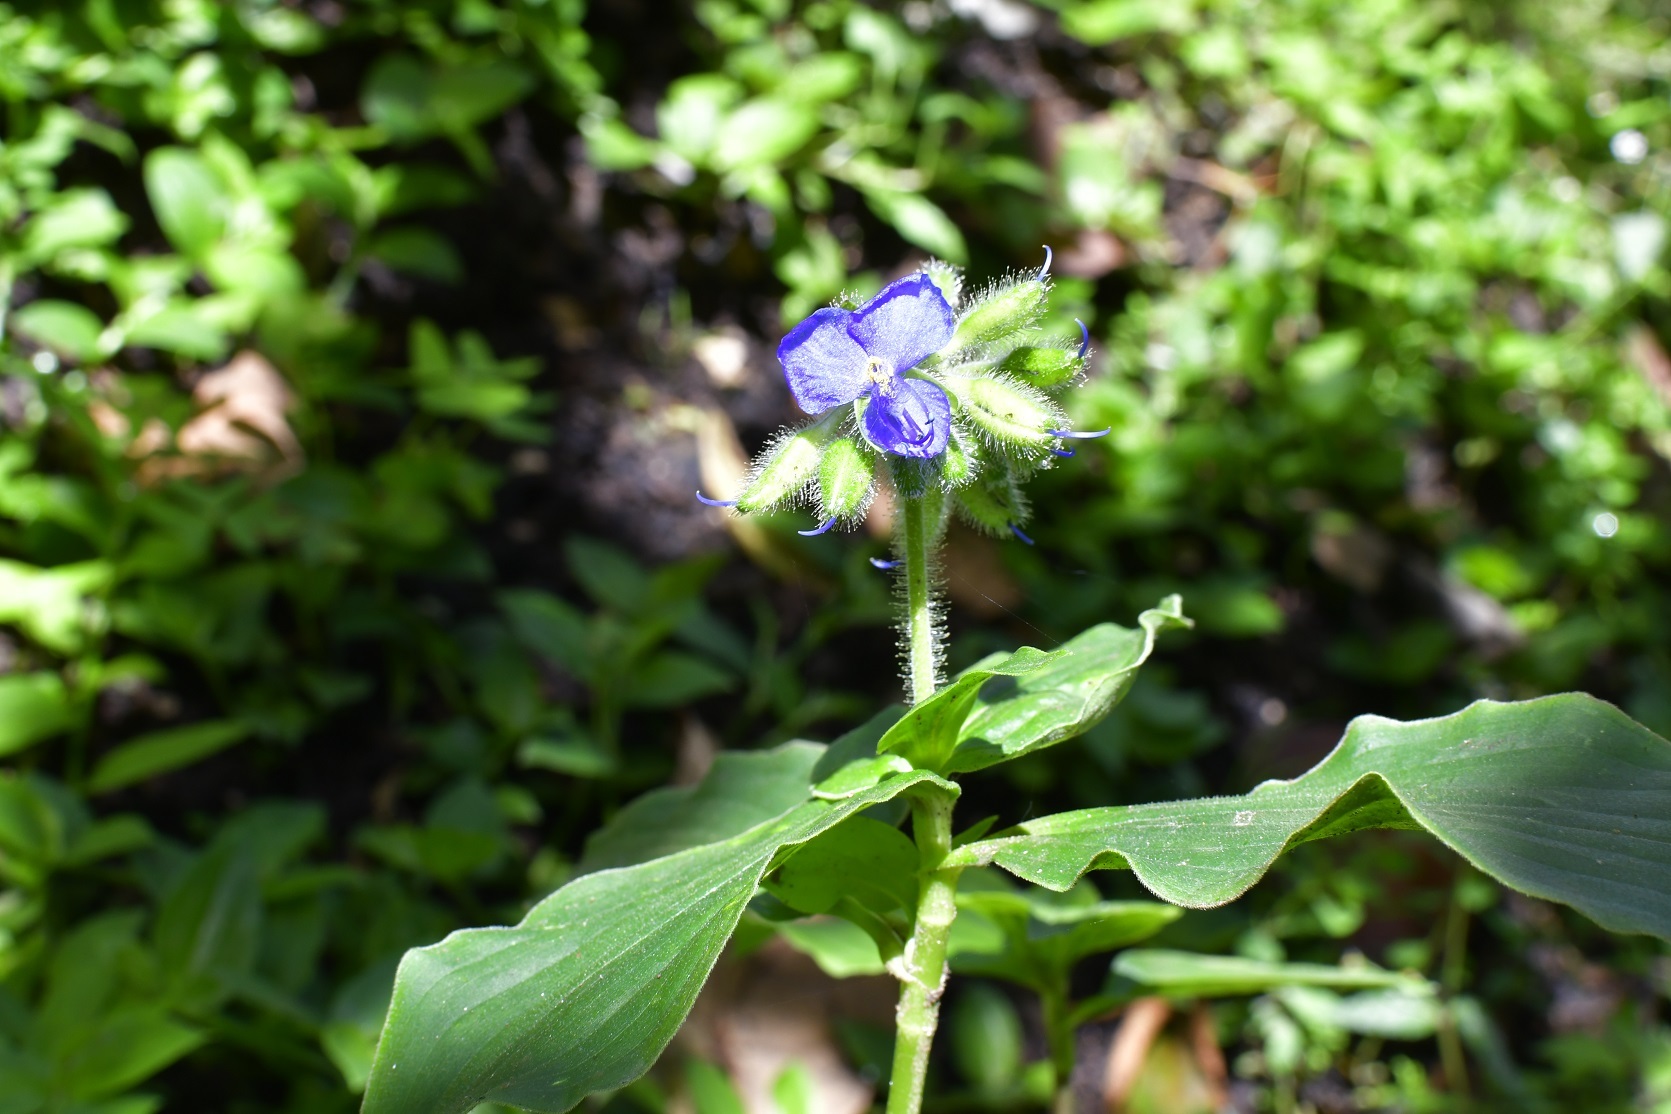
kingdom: Plantae
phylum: Tracheophyta
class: Liliopsida
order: Commelinales
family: Commelinaceae
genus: Tinantia
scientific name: Tinantia erecta
